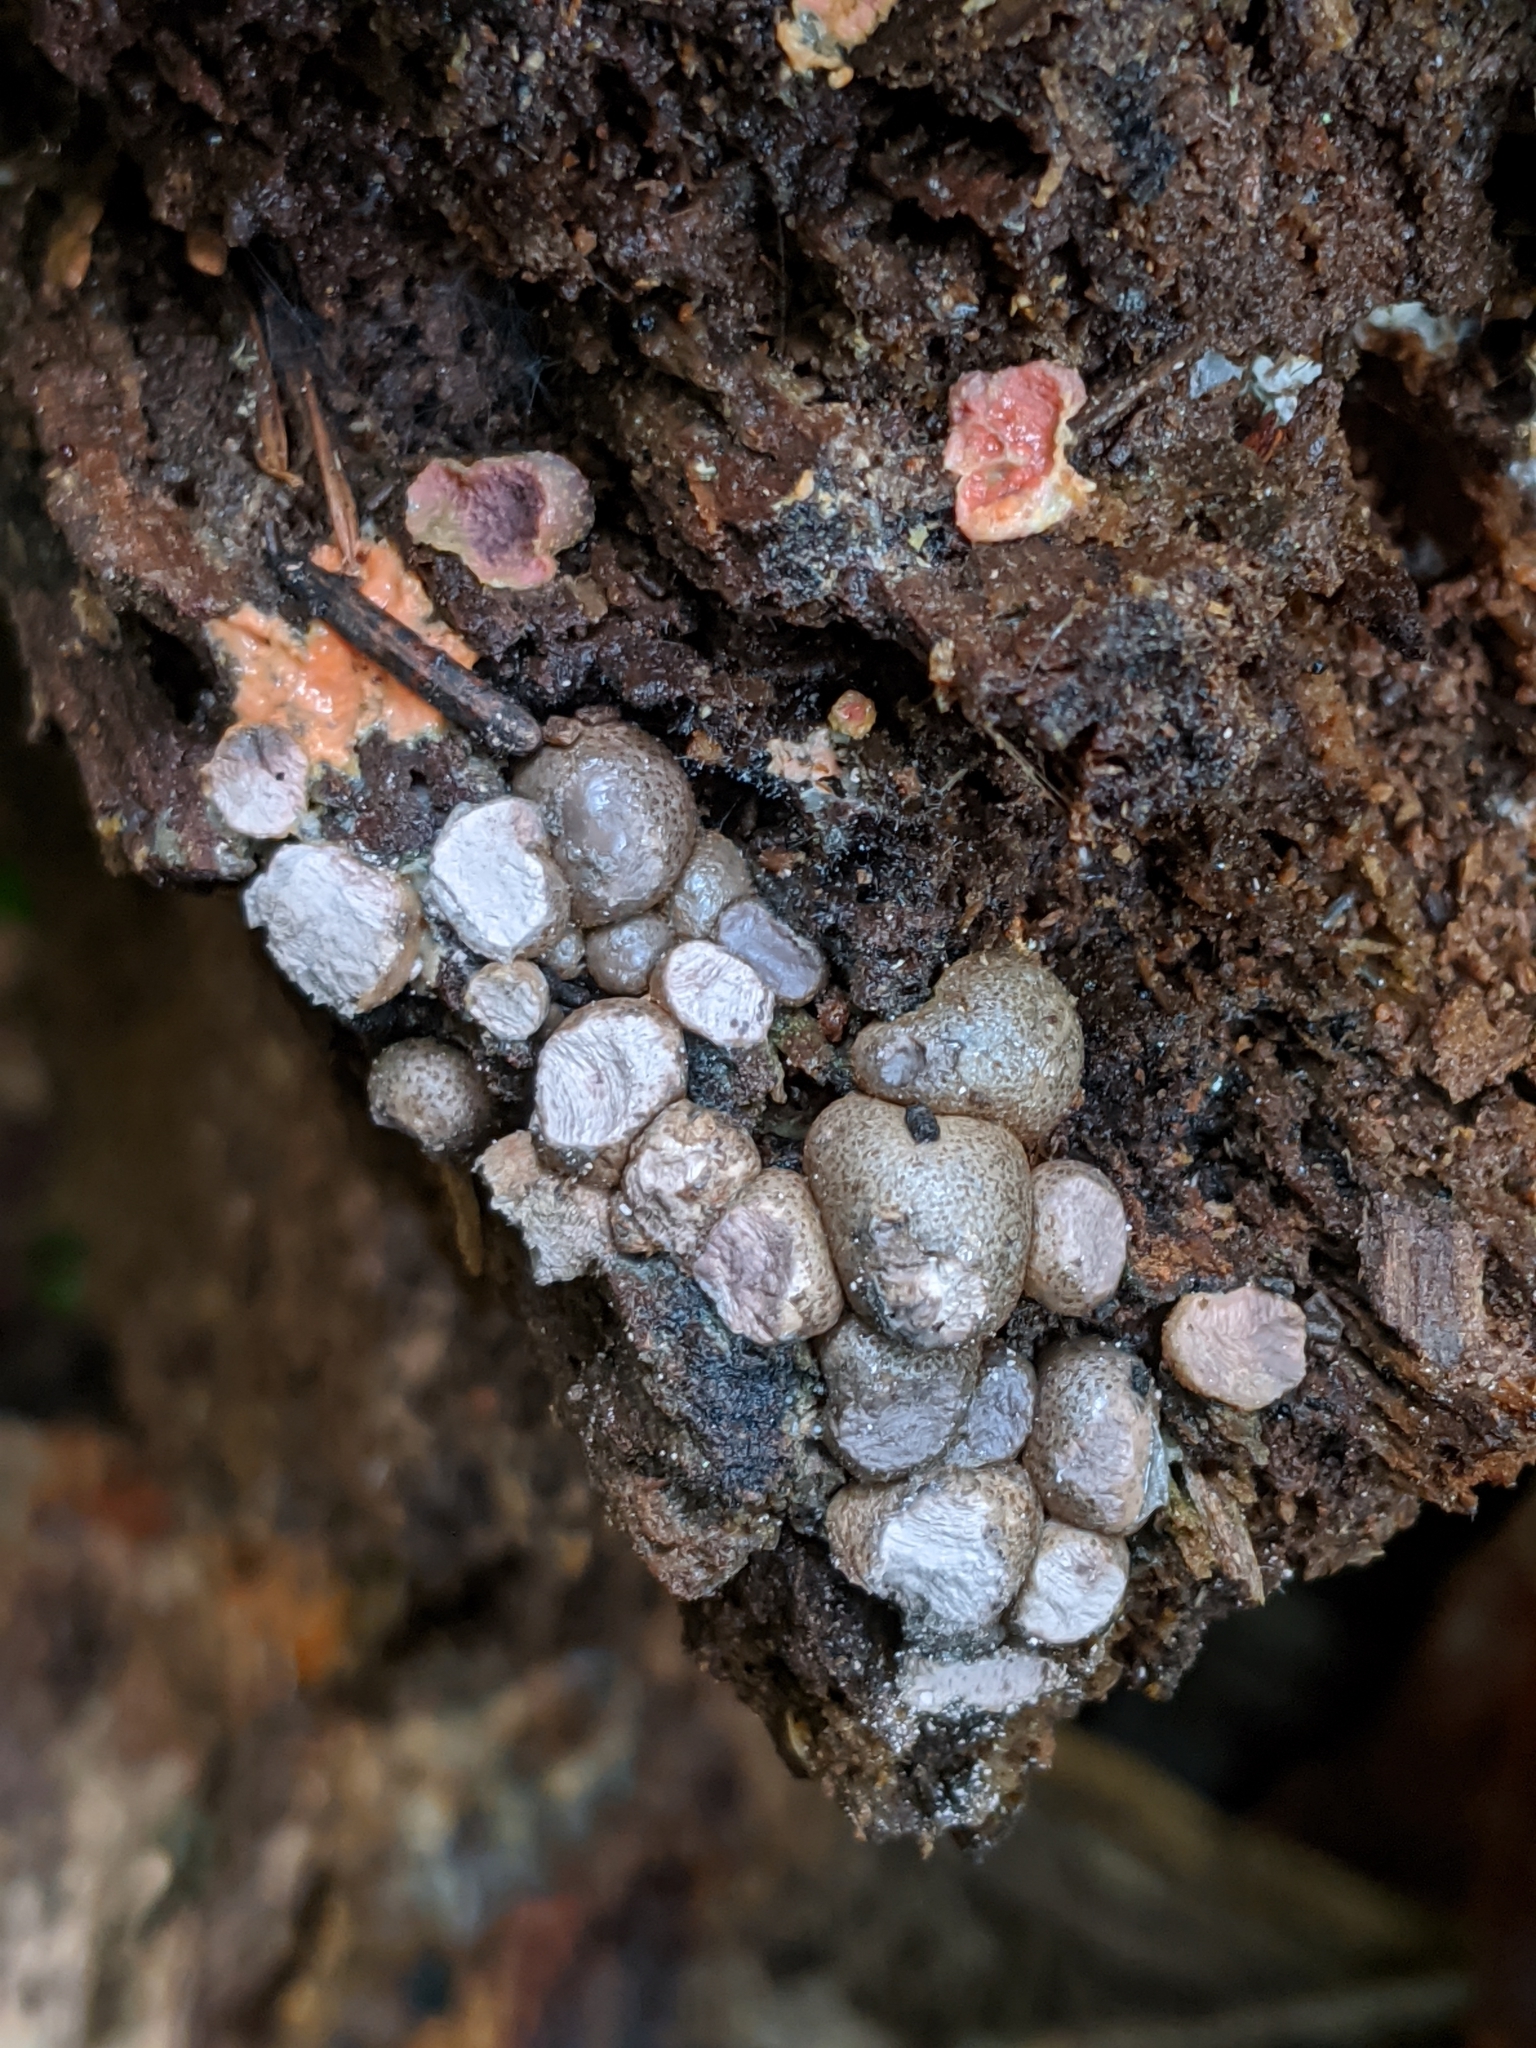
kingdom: Protozoa
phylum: Mycetozoa
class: Myxomycetes
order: Cribrariales
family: Tubiferaceae
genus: Lycogala
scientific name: Lycogala epidendrum
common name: Wolf's milk
